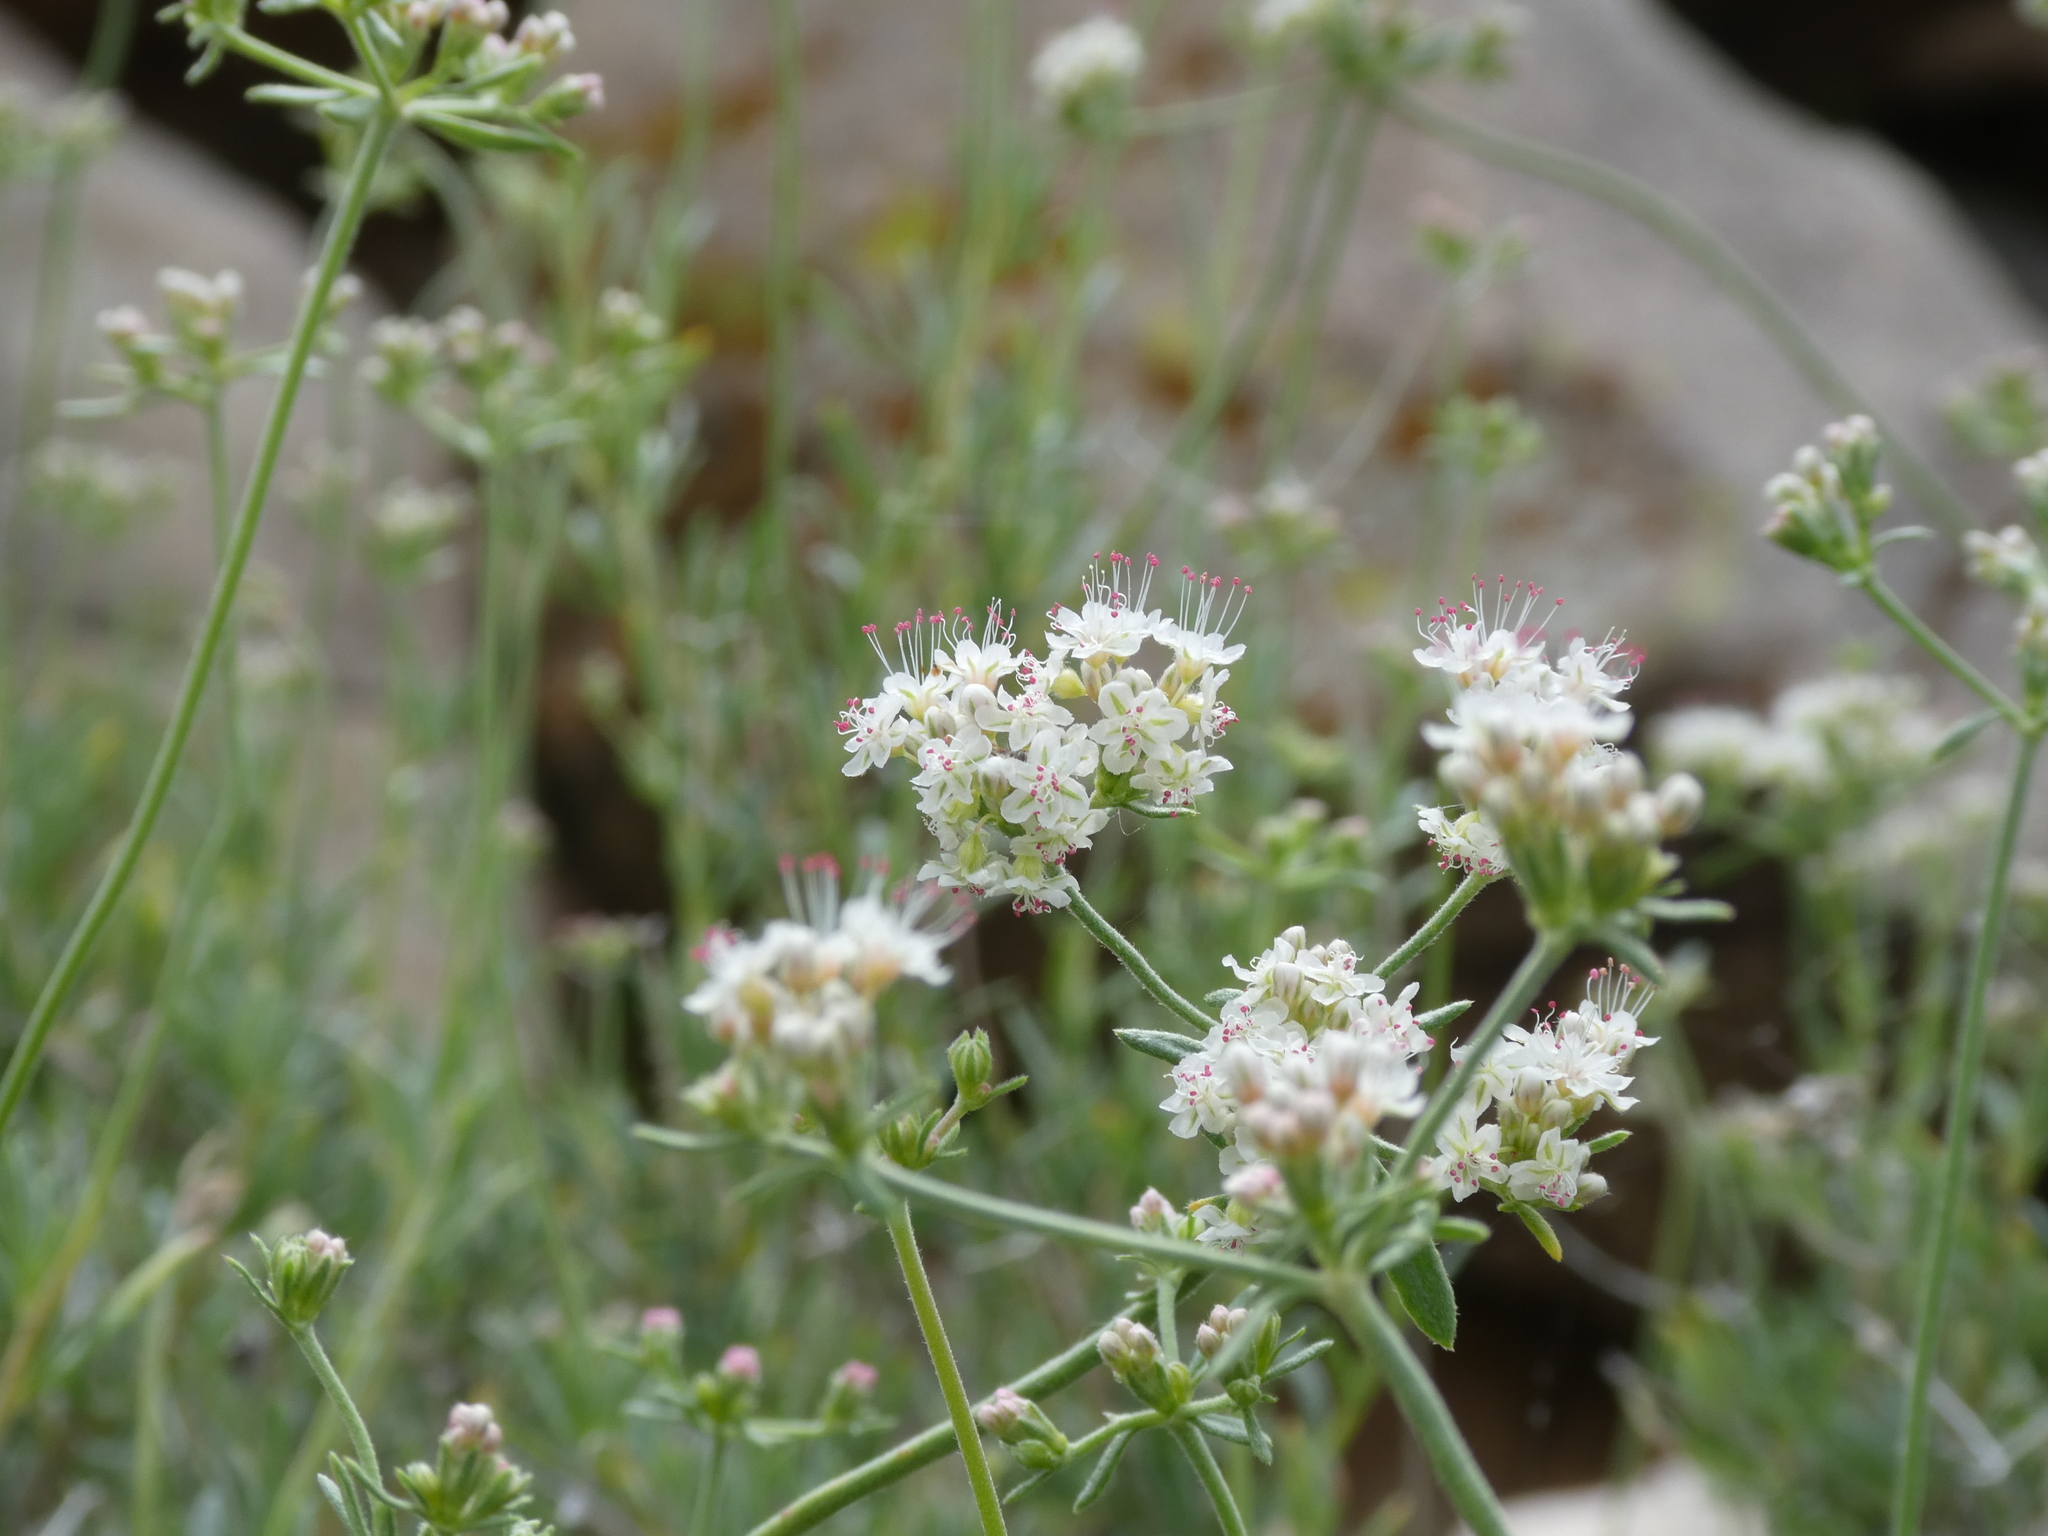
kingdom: Plantae
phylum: Tracheophyta
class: Magnoliopsida
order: Caryophyllales
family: Polygonaceae
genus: Eriogonum
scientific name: Eriogonum fasciculatum
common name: California wild buckwheat
